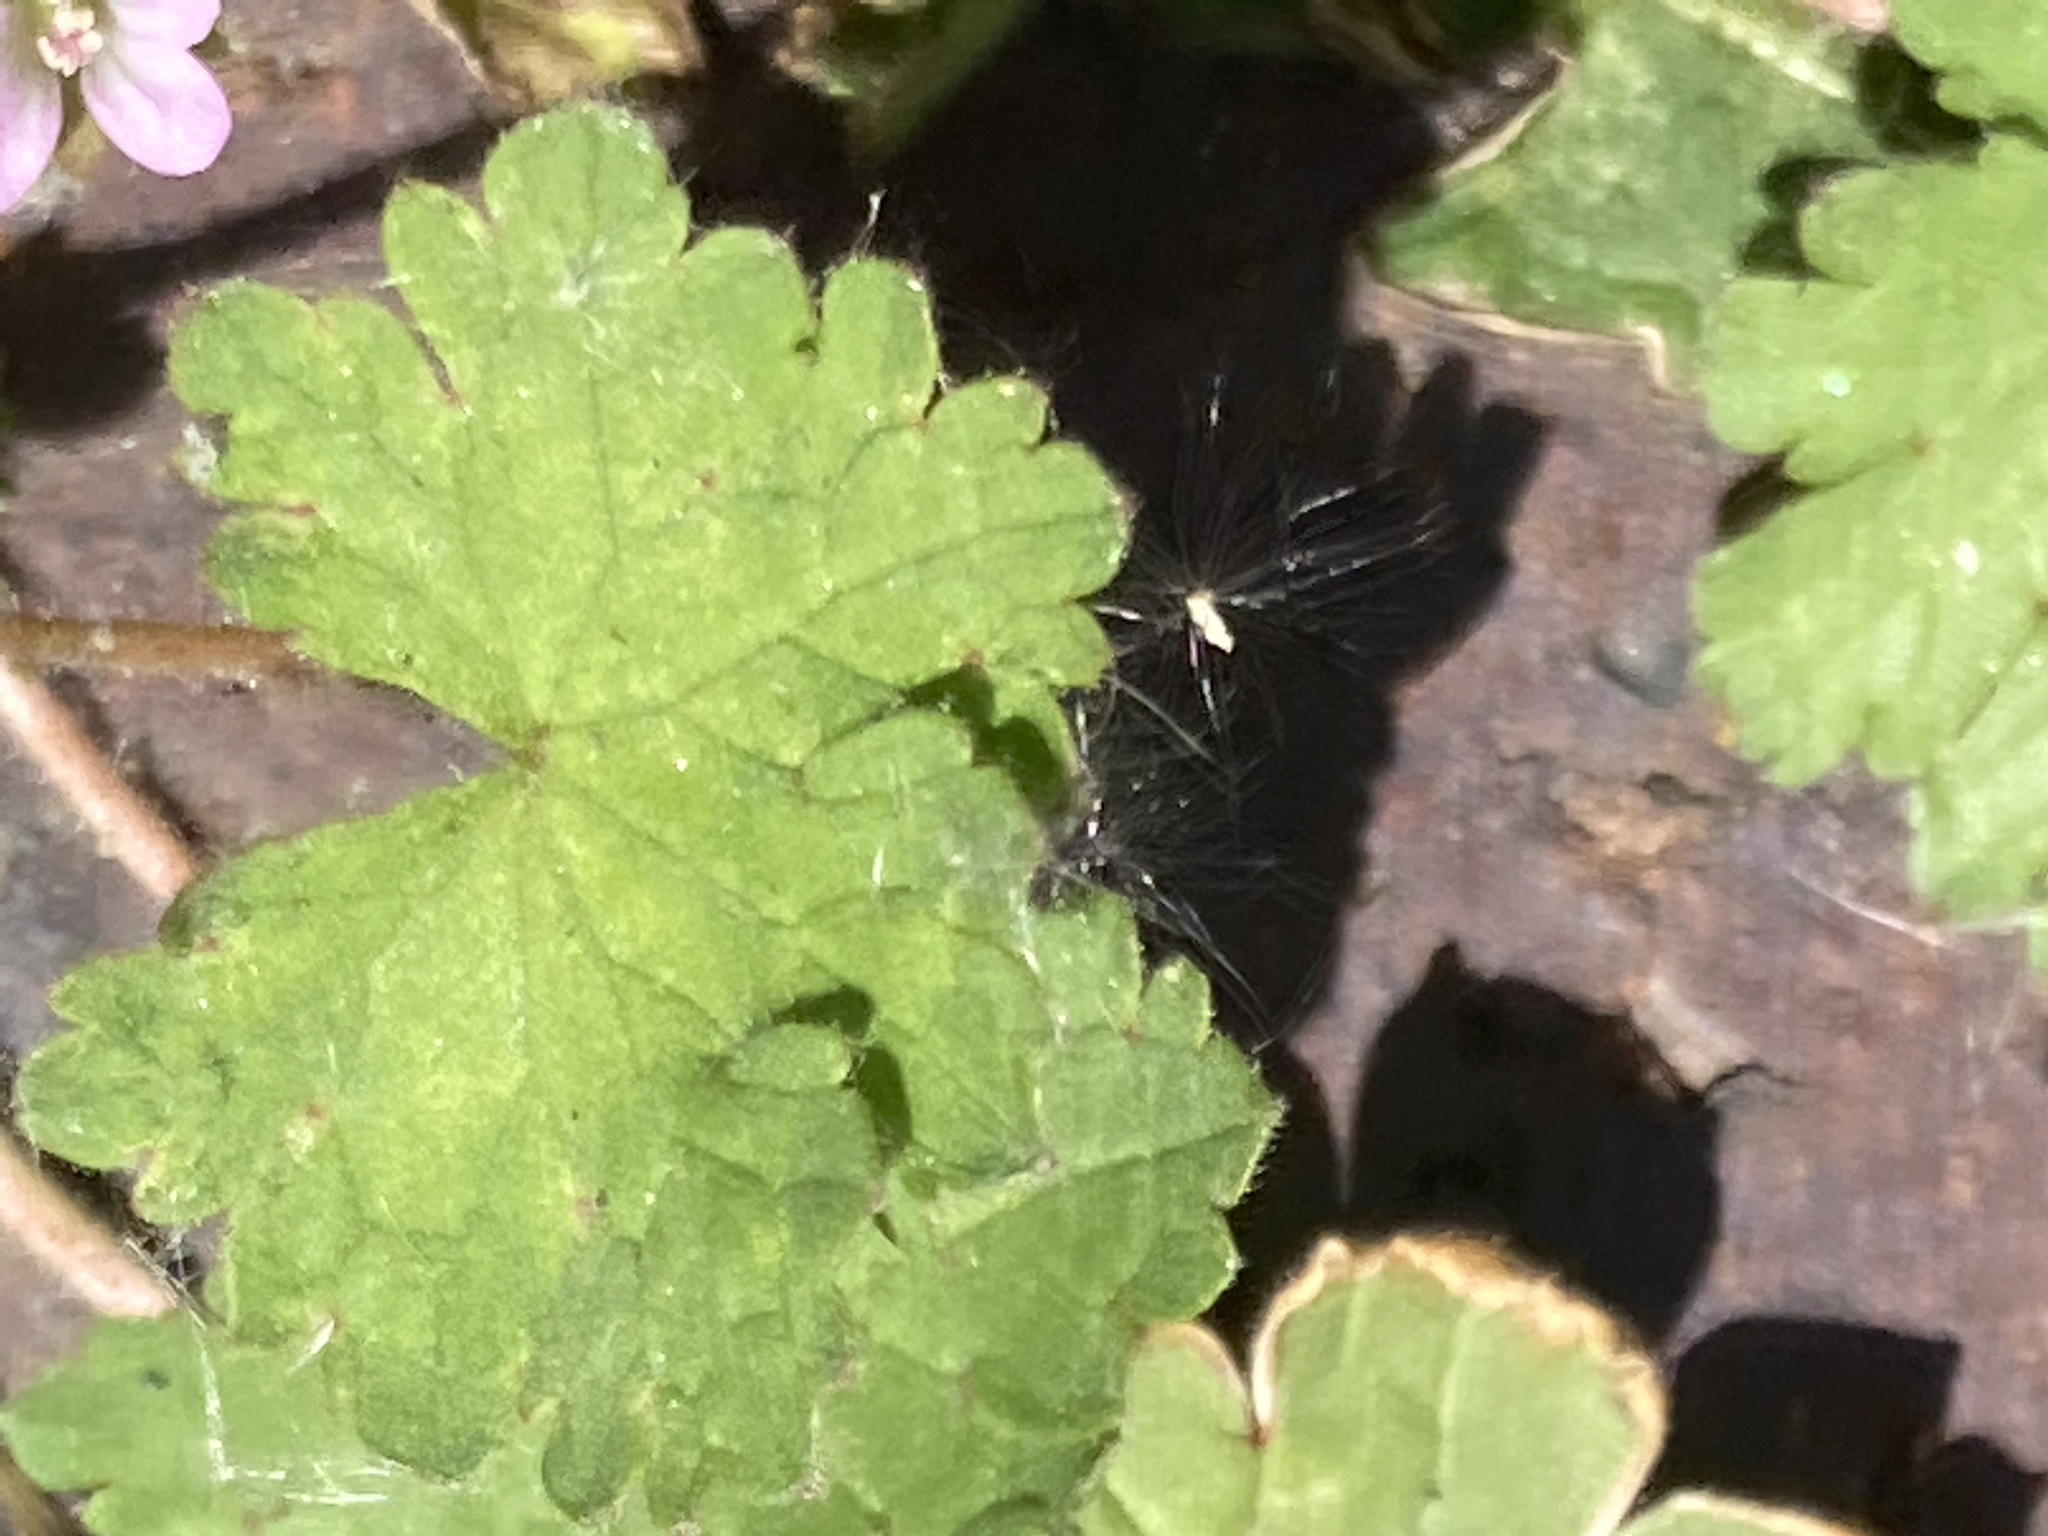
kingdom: Plantae
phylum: Tracheophyta
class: Magnoliopsida
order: Geraniales
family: Geraniaceae
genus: Geranium
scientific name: Geranium rotundifolium
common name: Round-leaved crane's-bill
